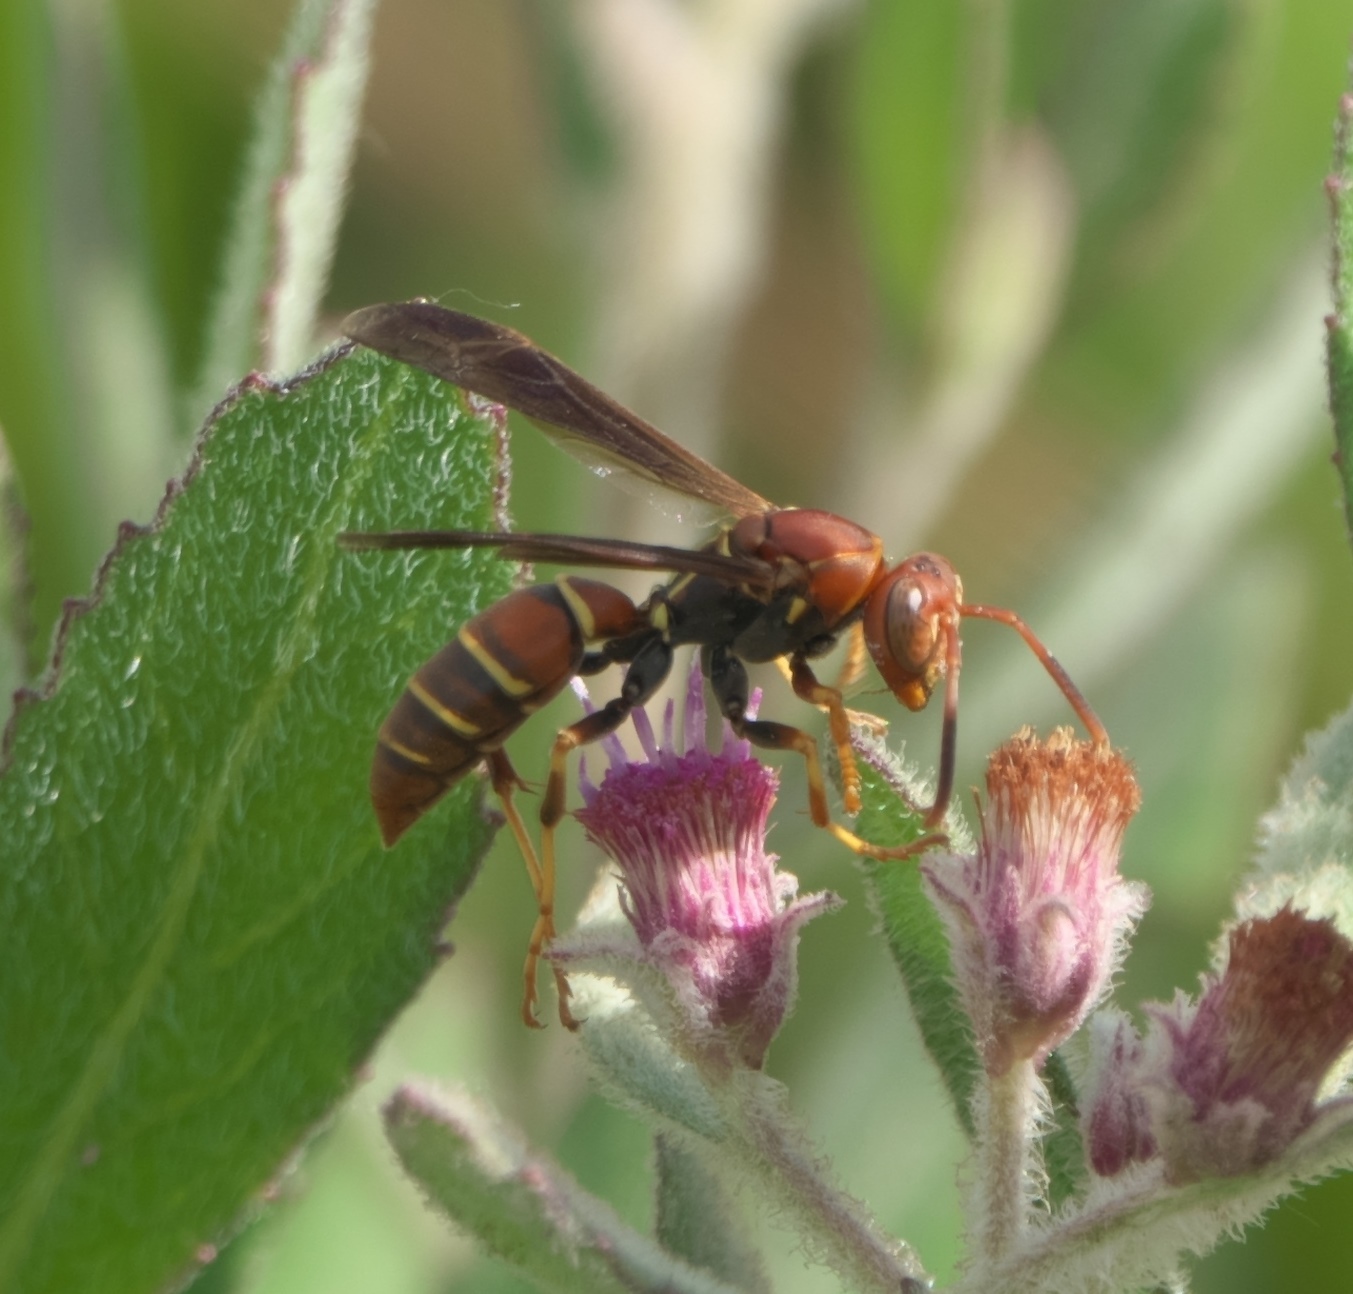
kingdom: Animalia
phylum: Arthropoda
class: Insecta
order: Hymenoptera
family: Eumenidae
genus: Polistes
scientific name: Polistes dorsalis
